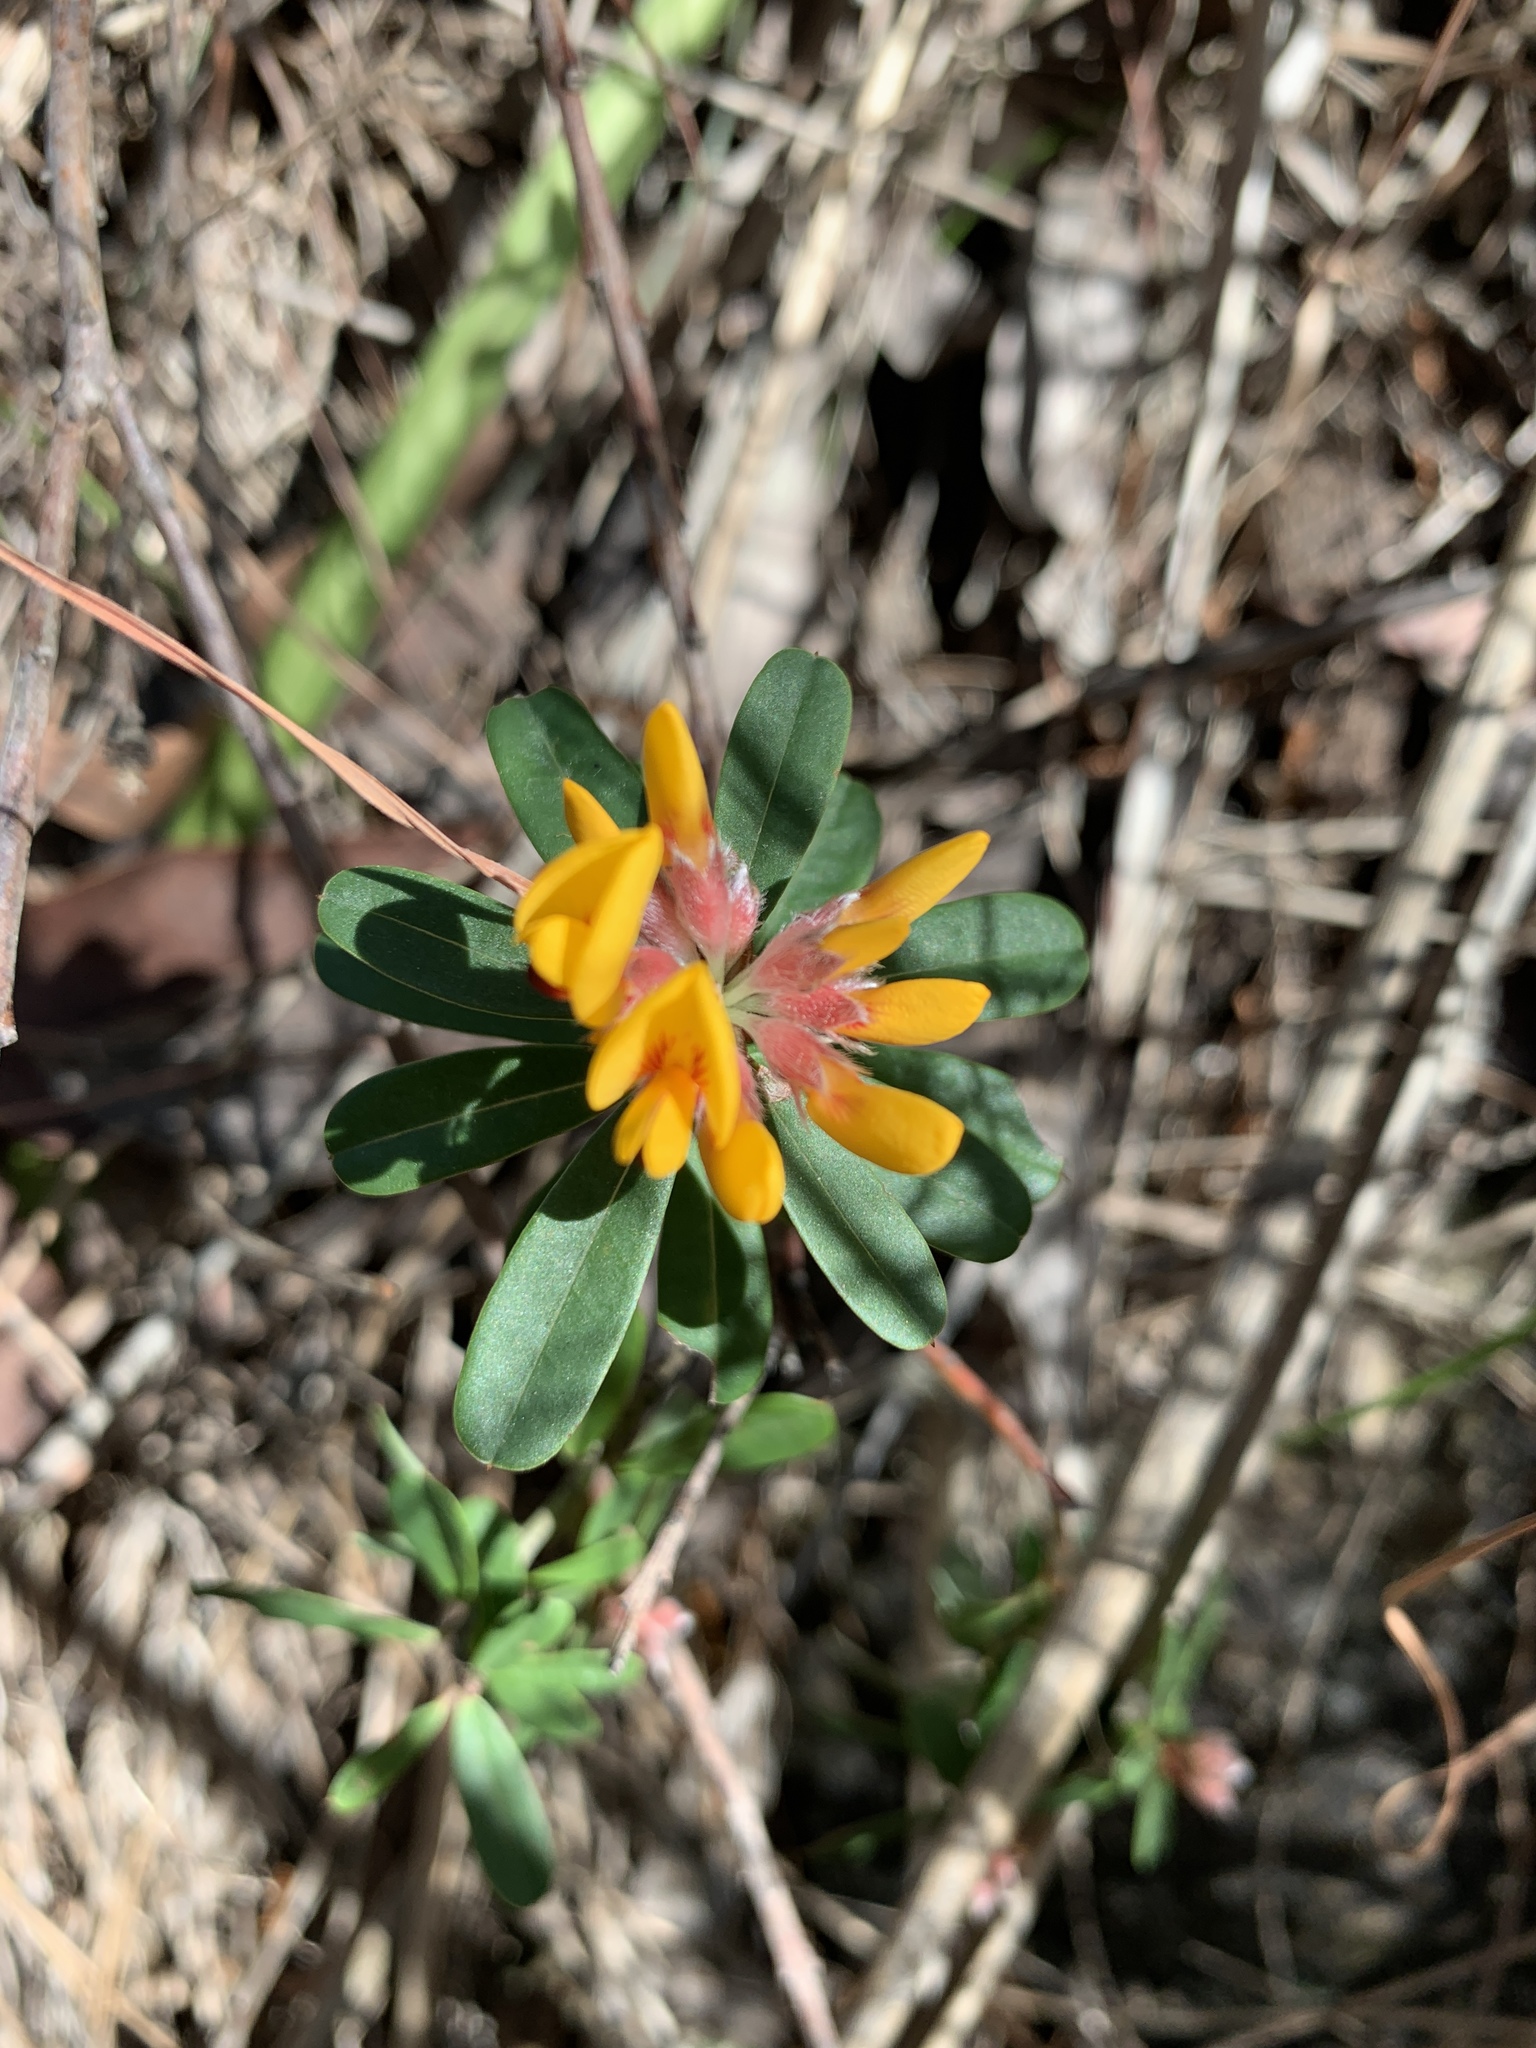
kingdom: Plantae
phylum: Tracheophyta
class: Magnoliopsida
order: Fabales
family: Fabaceae
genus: Pultenaea
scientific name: Pultenaea daphnoides
